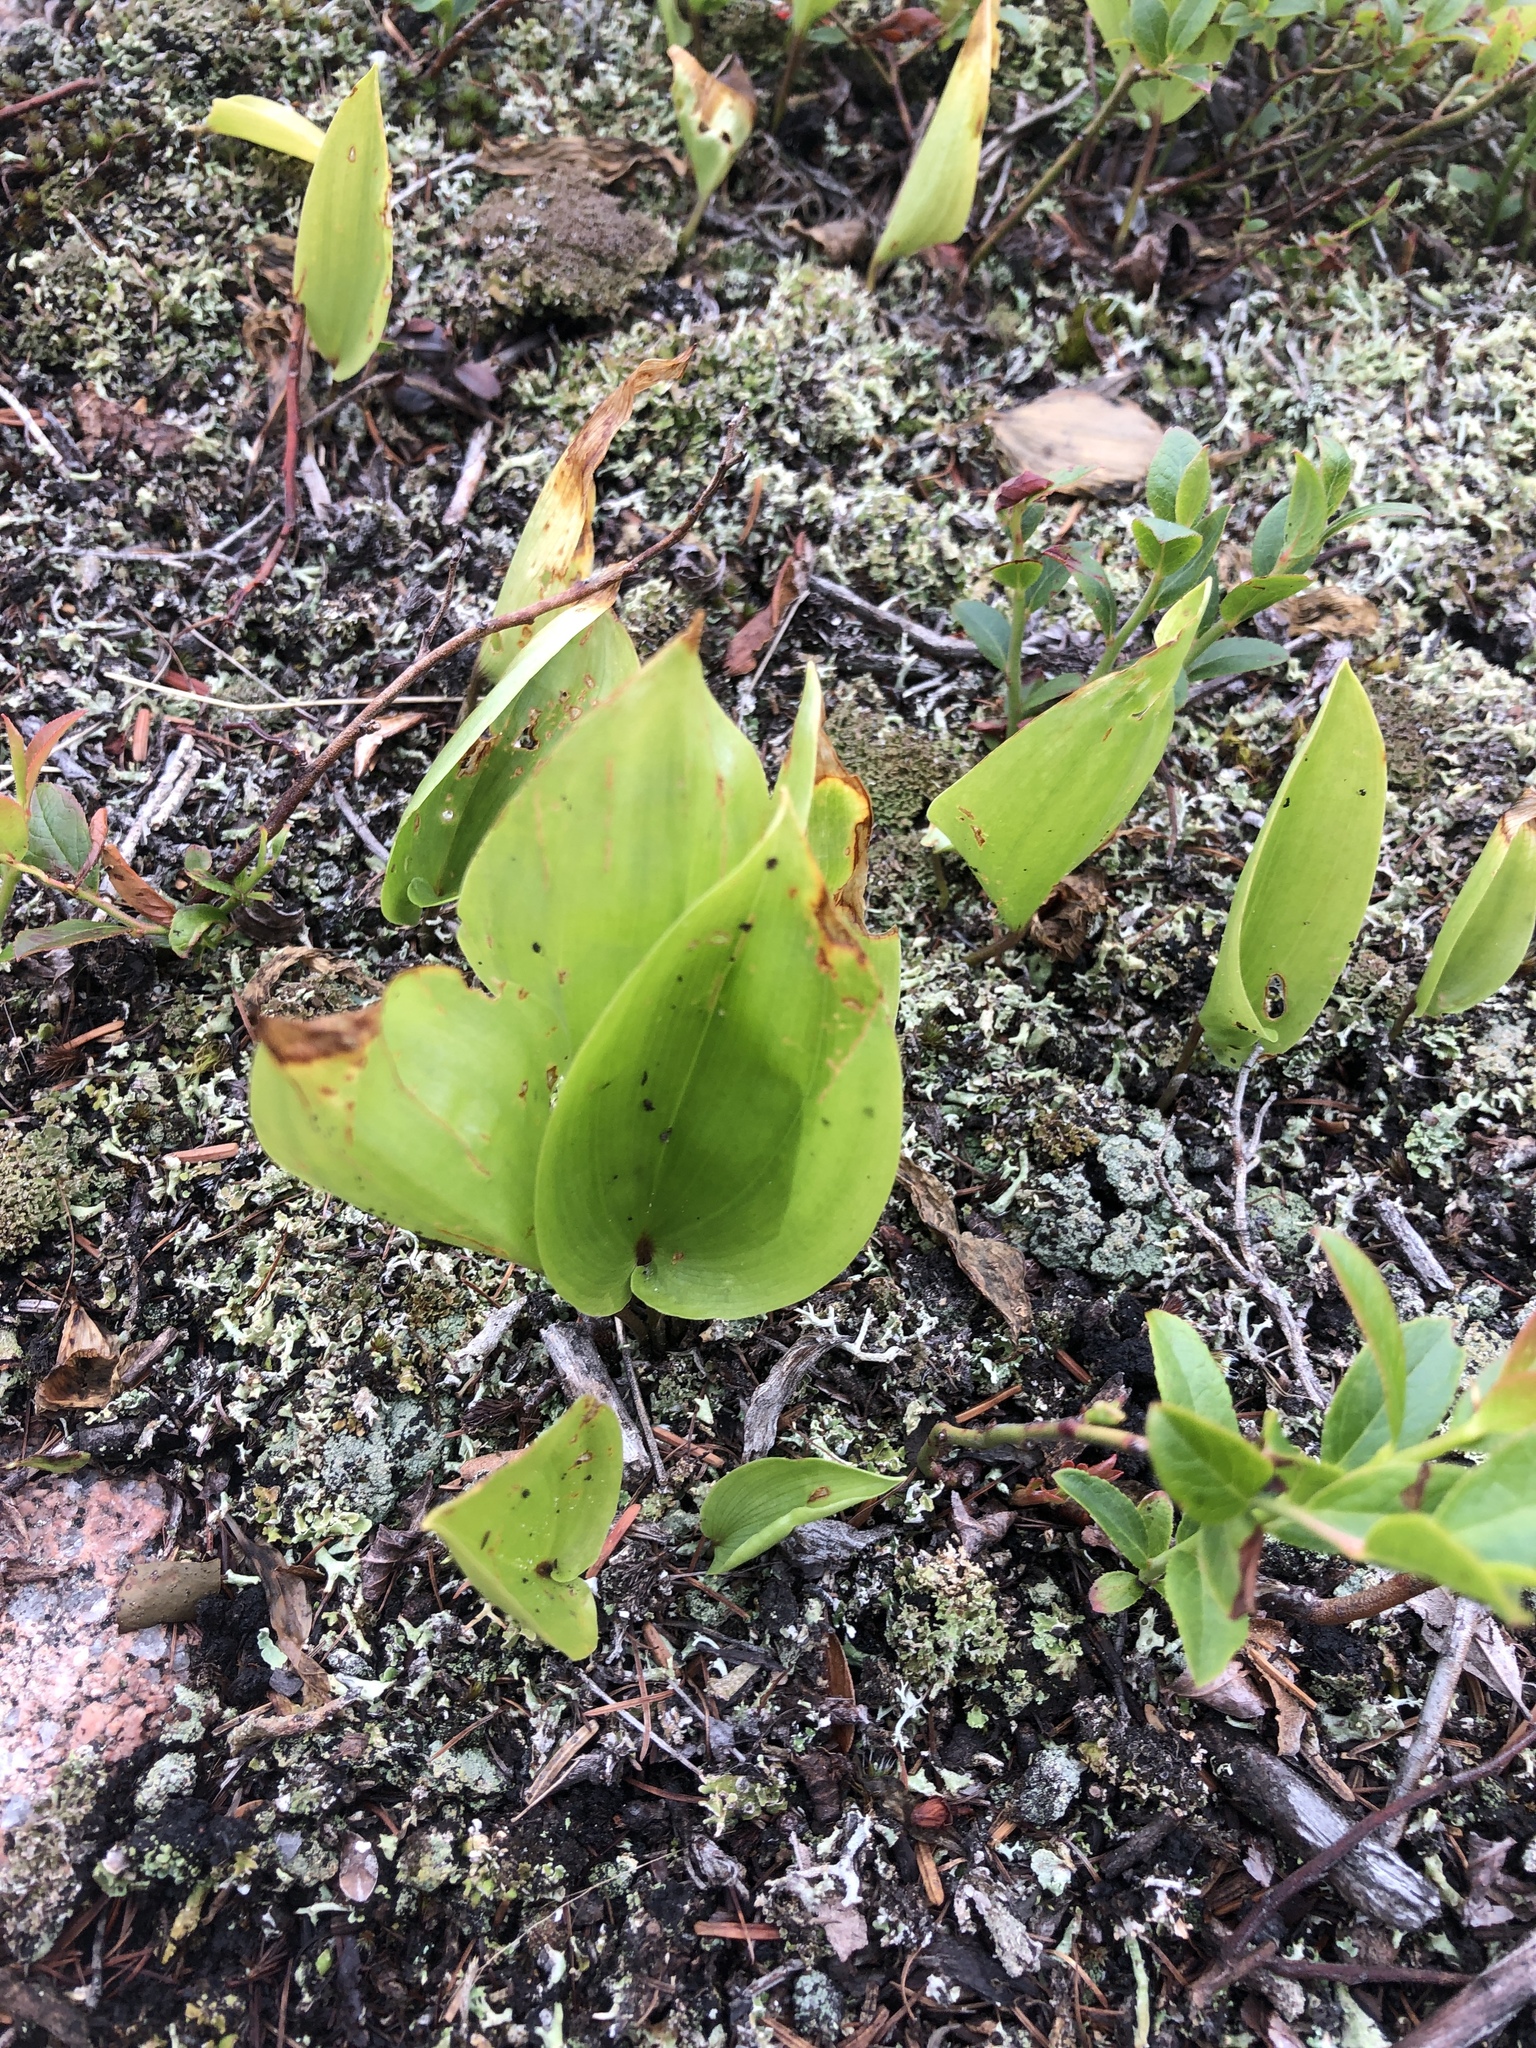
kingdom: Plantae
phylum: Tracheophyta
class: Liliopsida
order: Asparagales
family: Asparagaceae
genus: Maianthemum
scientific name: Maianthemum canadense
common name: False lily-of-the-valley
